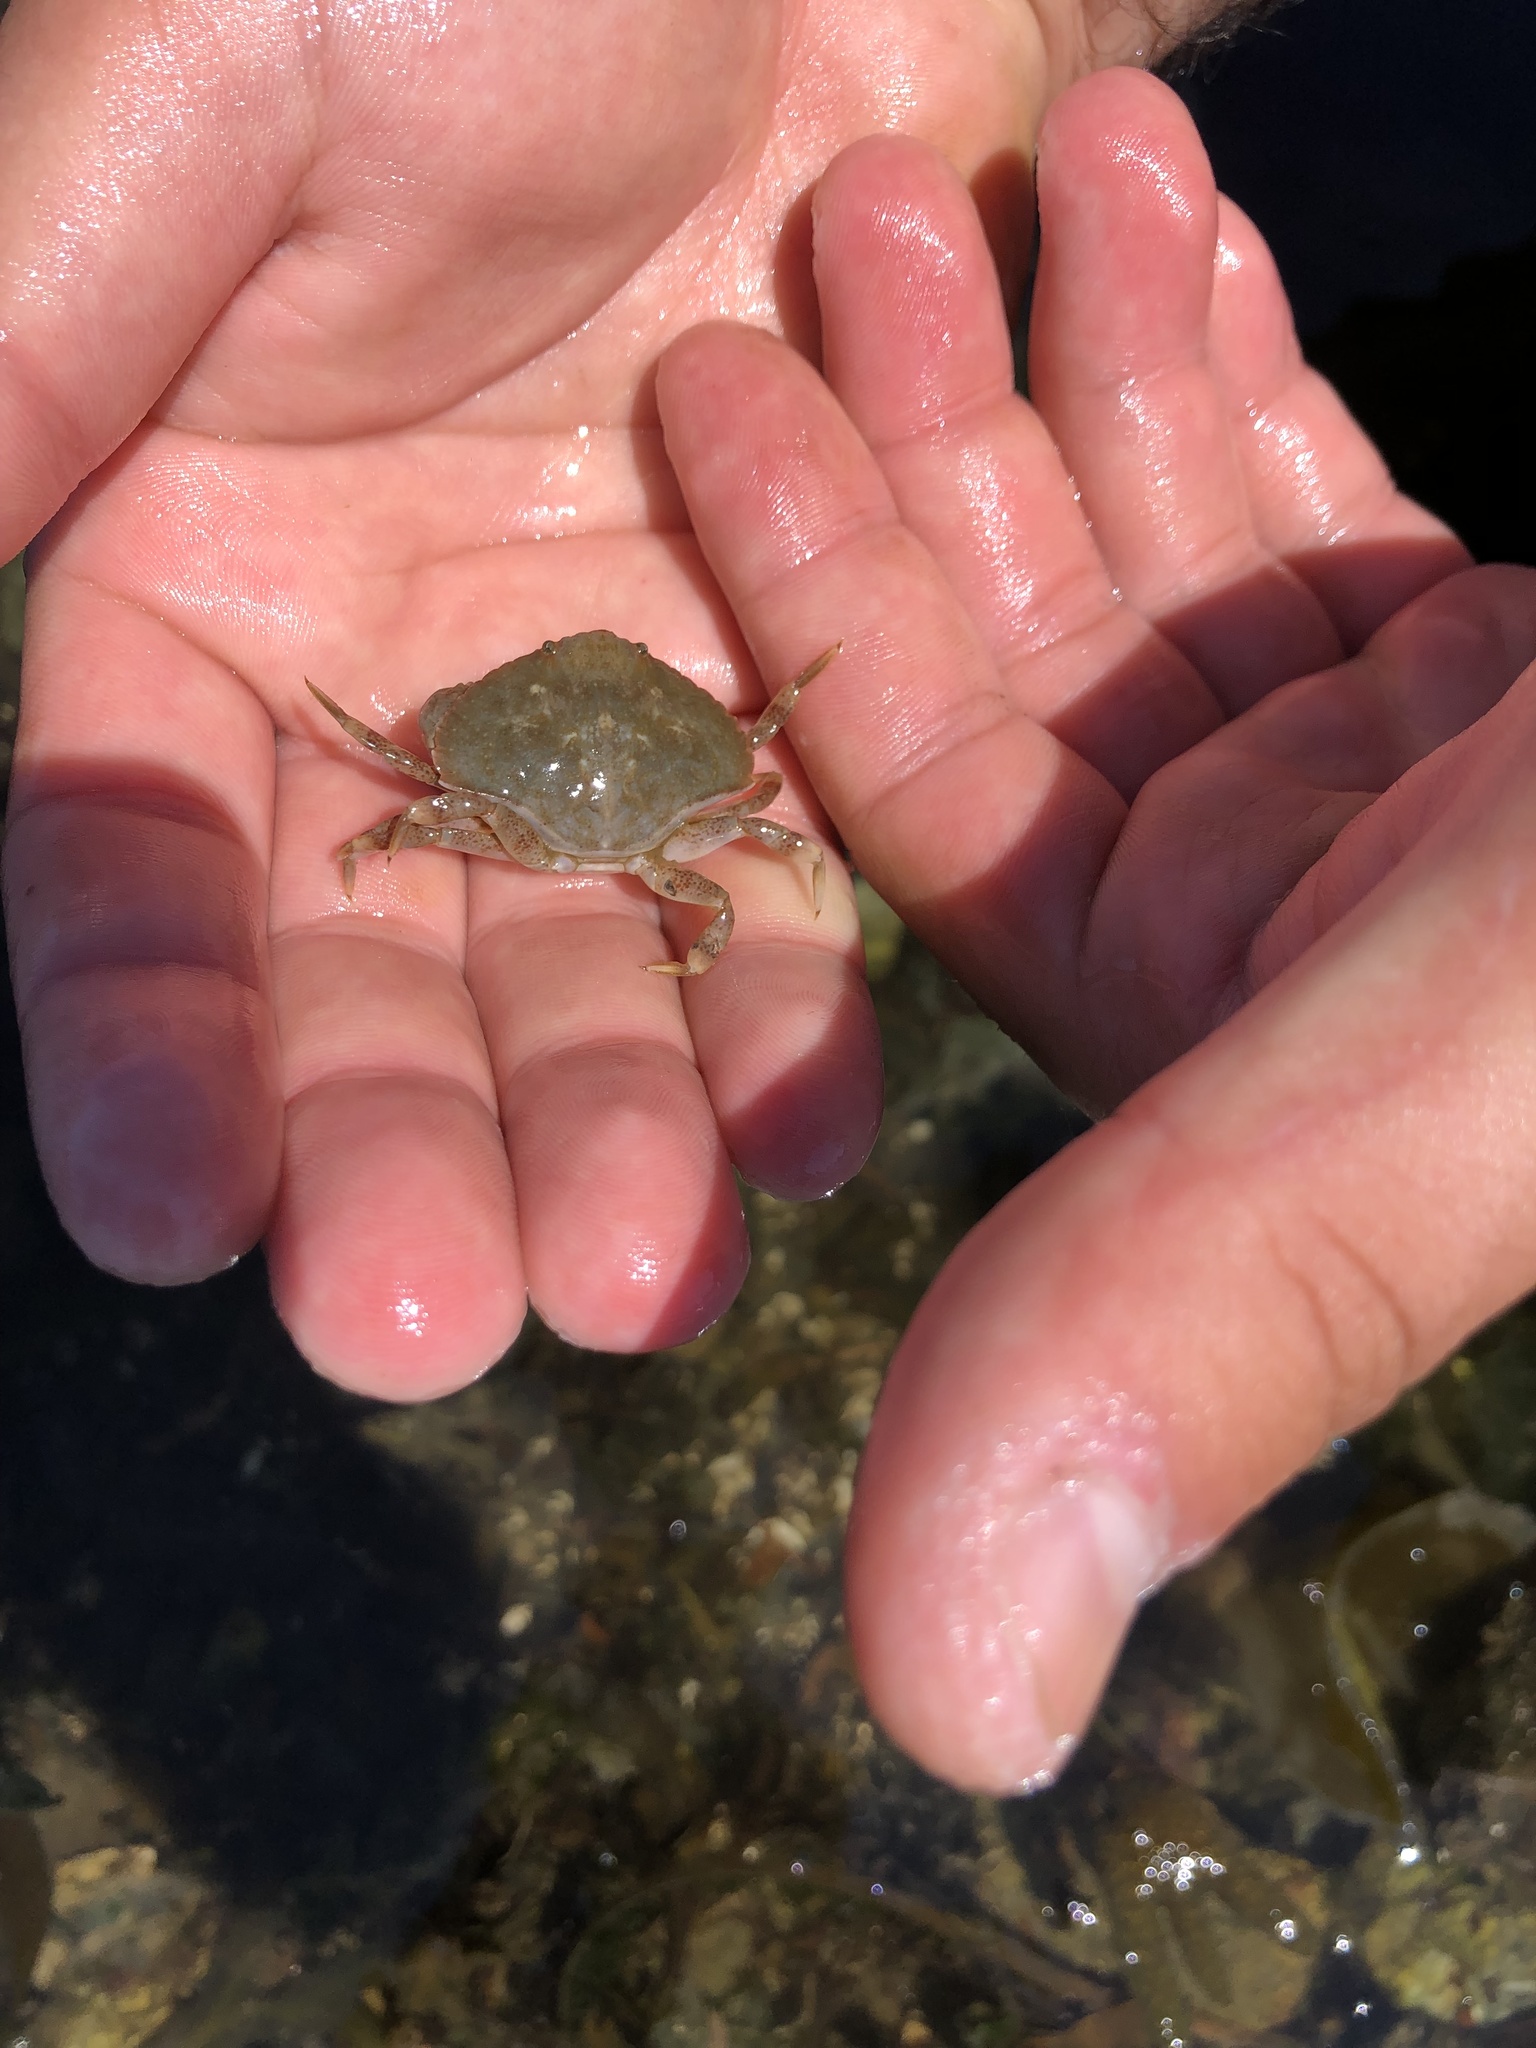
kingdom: Animalia
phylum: Arthropoda
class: Malacostraca
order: Decapoda
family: Cancridae
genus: Cancer
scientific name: Cancer productus
